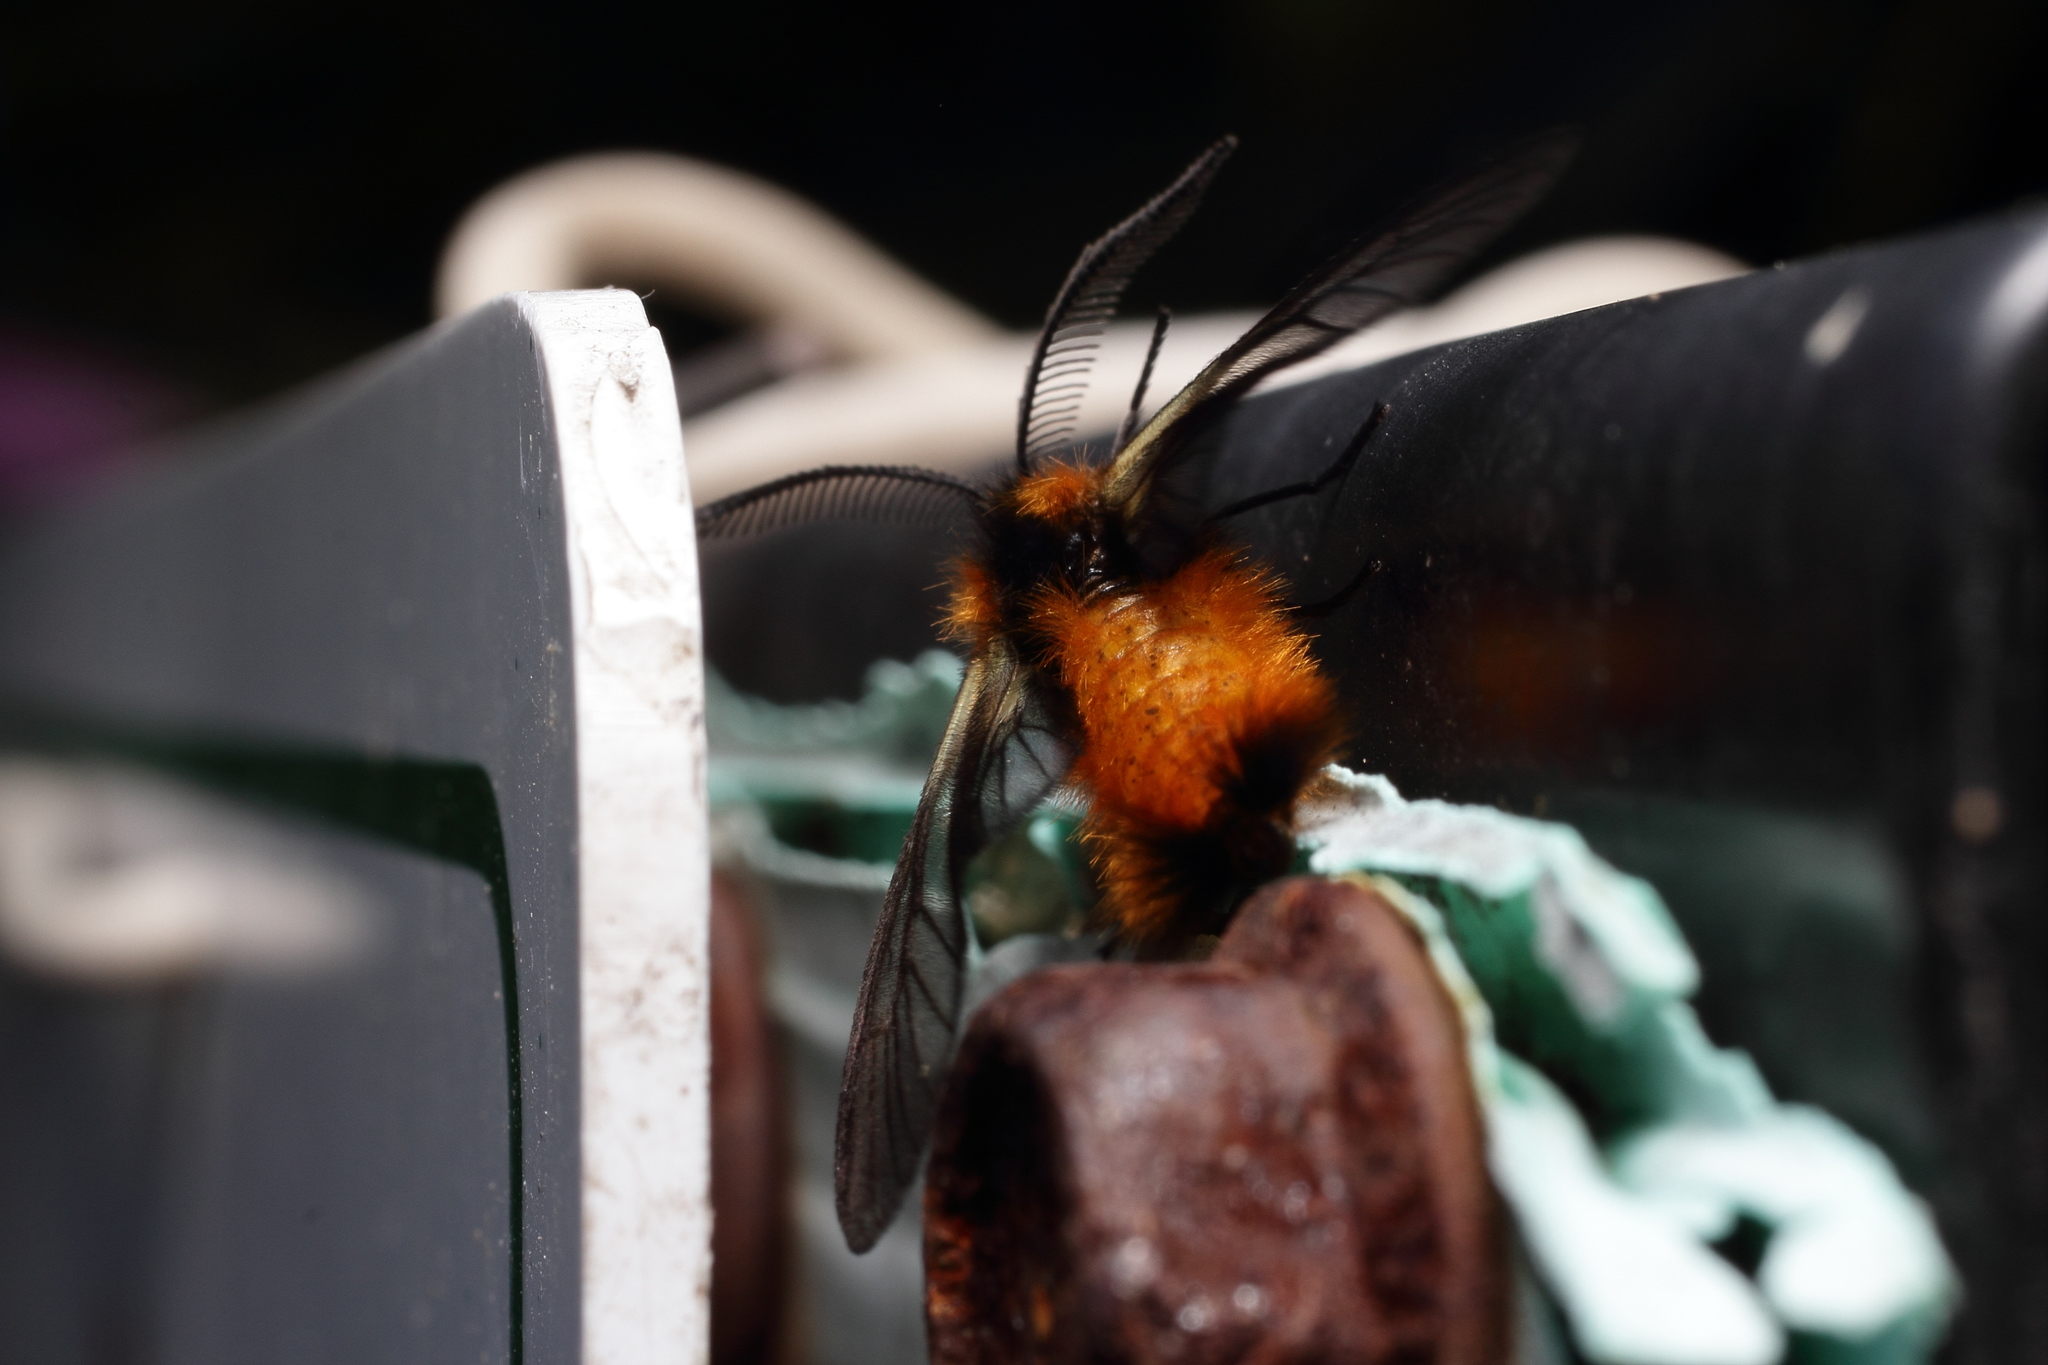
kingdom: Animalia
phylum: Arthropoda
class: Insecta
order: Lepidoptera
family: Zygaenidae
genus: Sinica
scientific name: Sinica sinica
